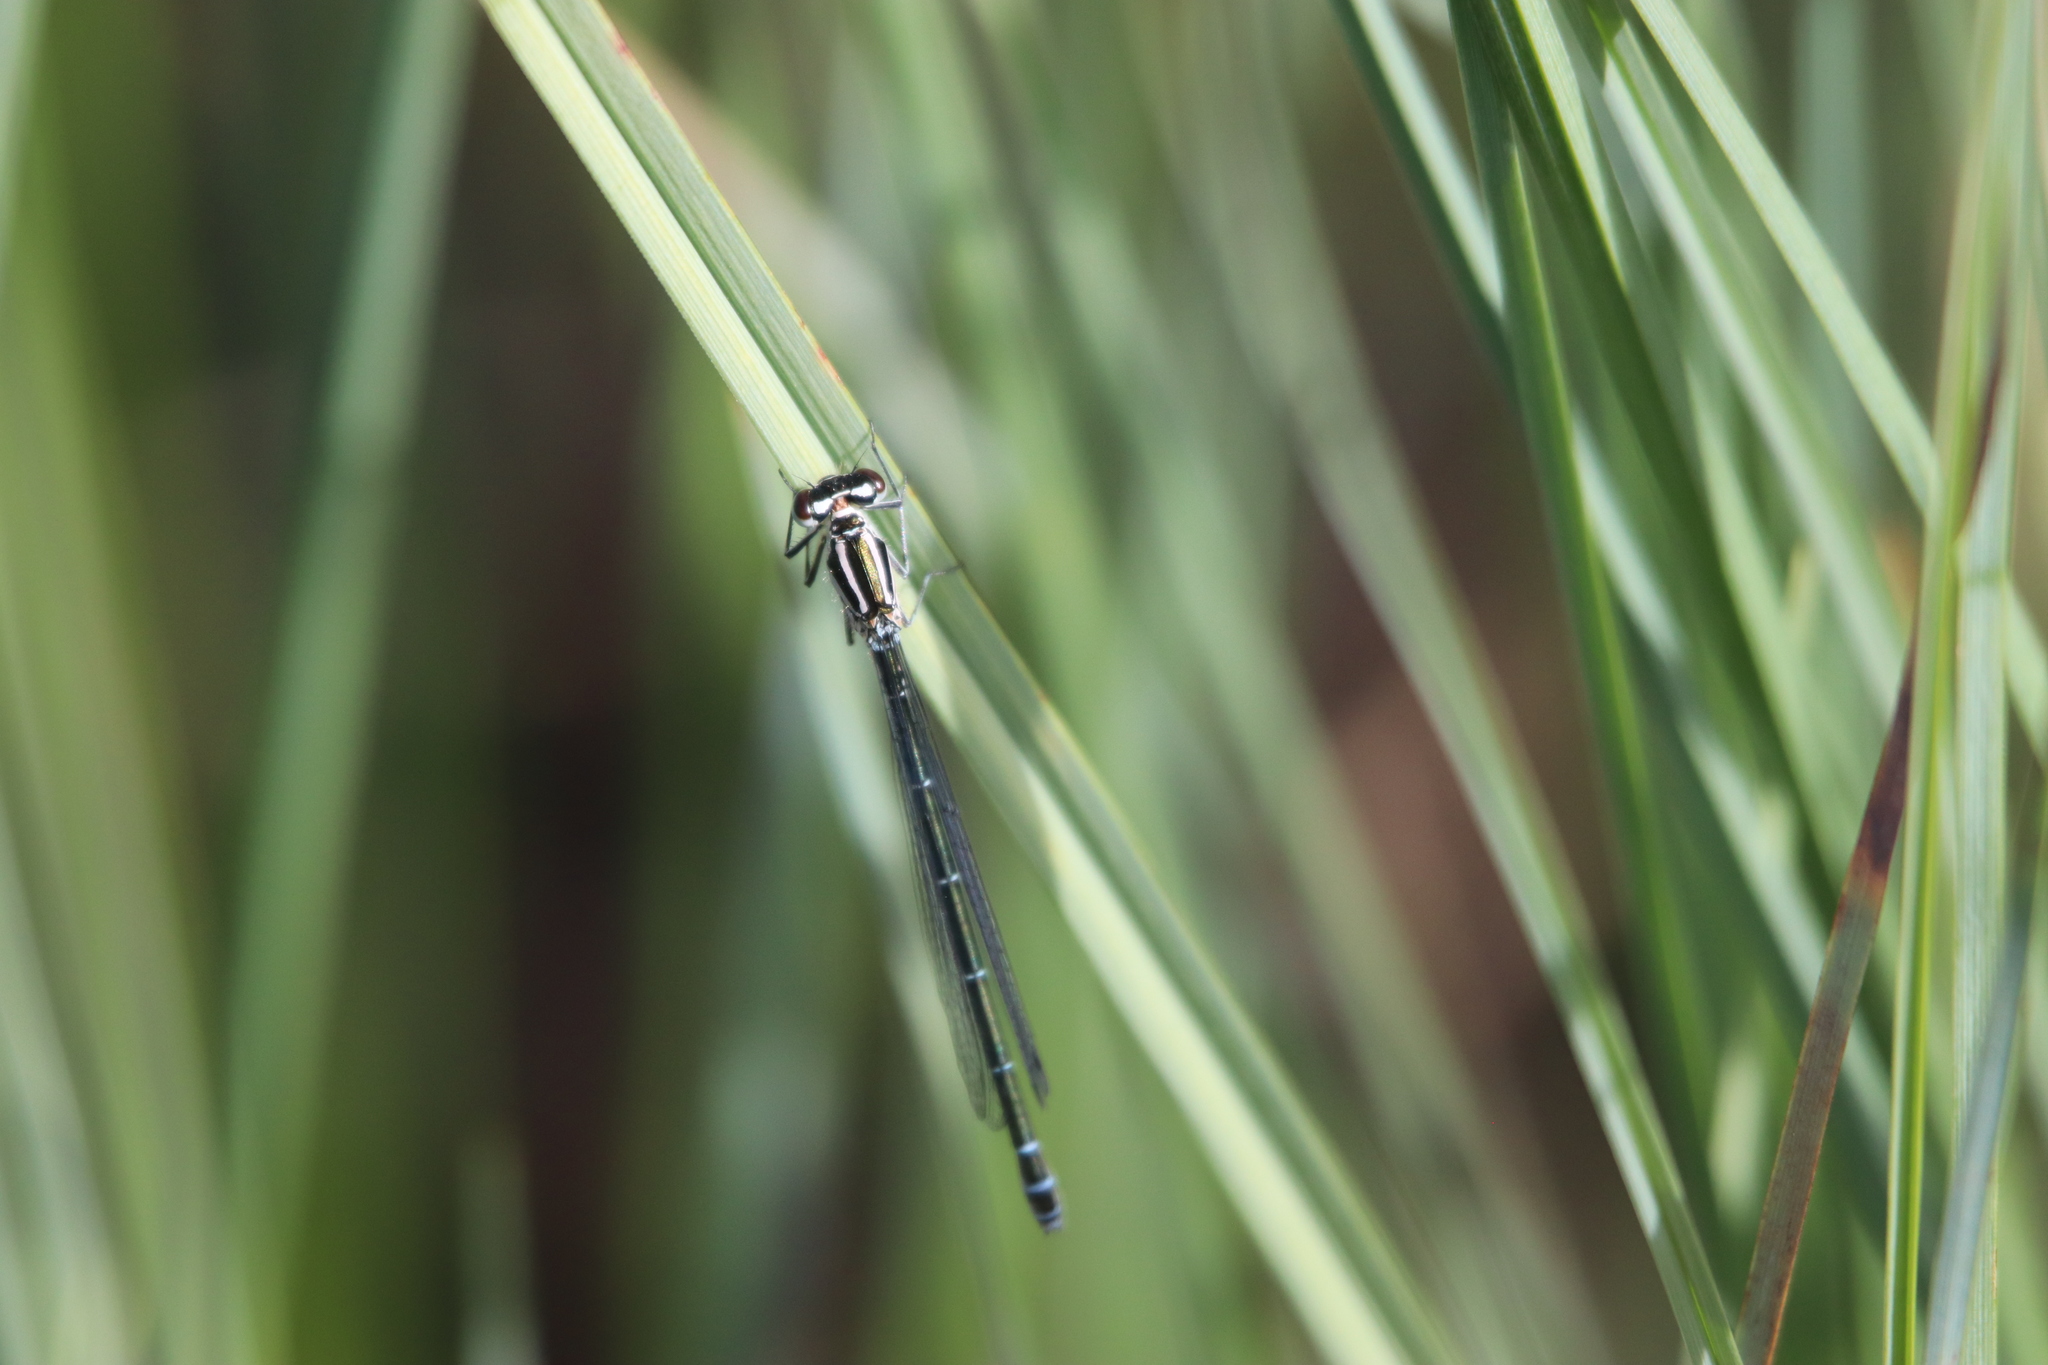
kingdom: Animalia
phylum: Arthropoda
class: Insecta
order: Odonata
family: Coenagrionidae
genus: Coenagrion
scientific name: Coenagrion puella
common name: Azure damselfly
